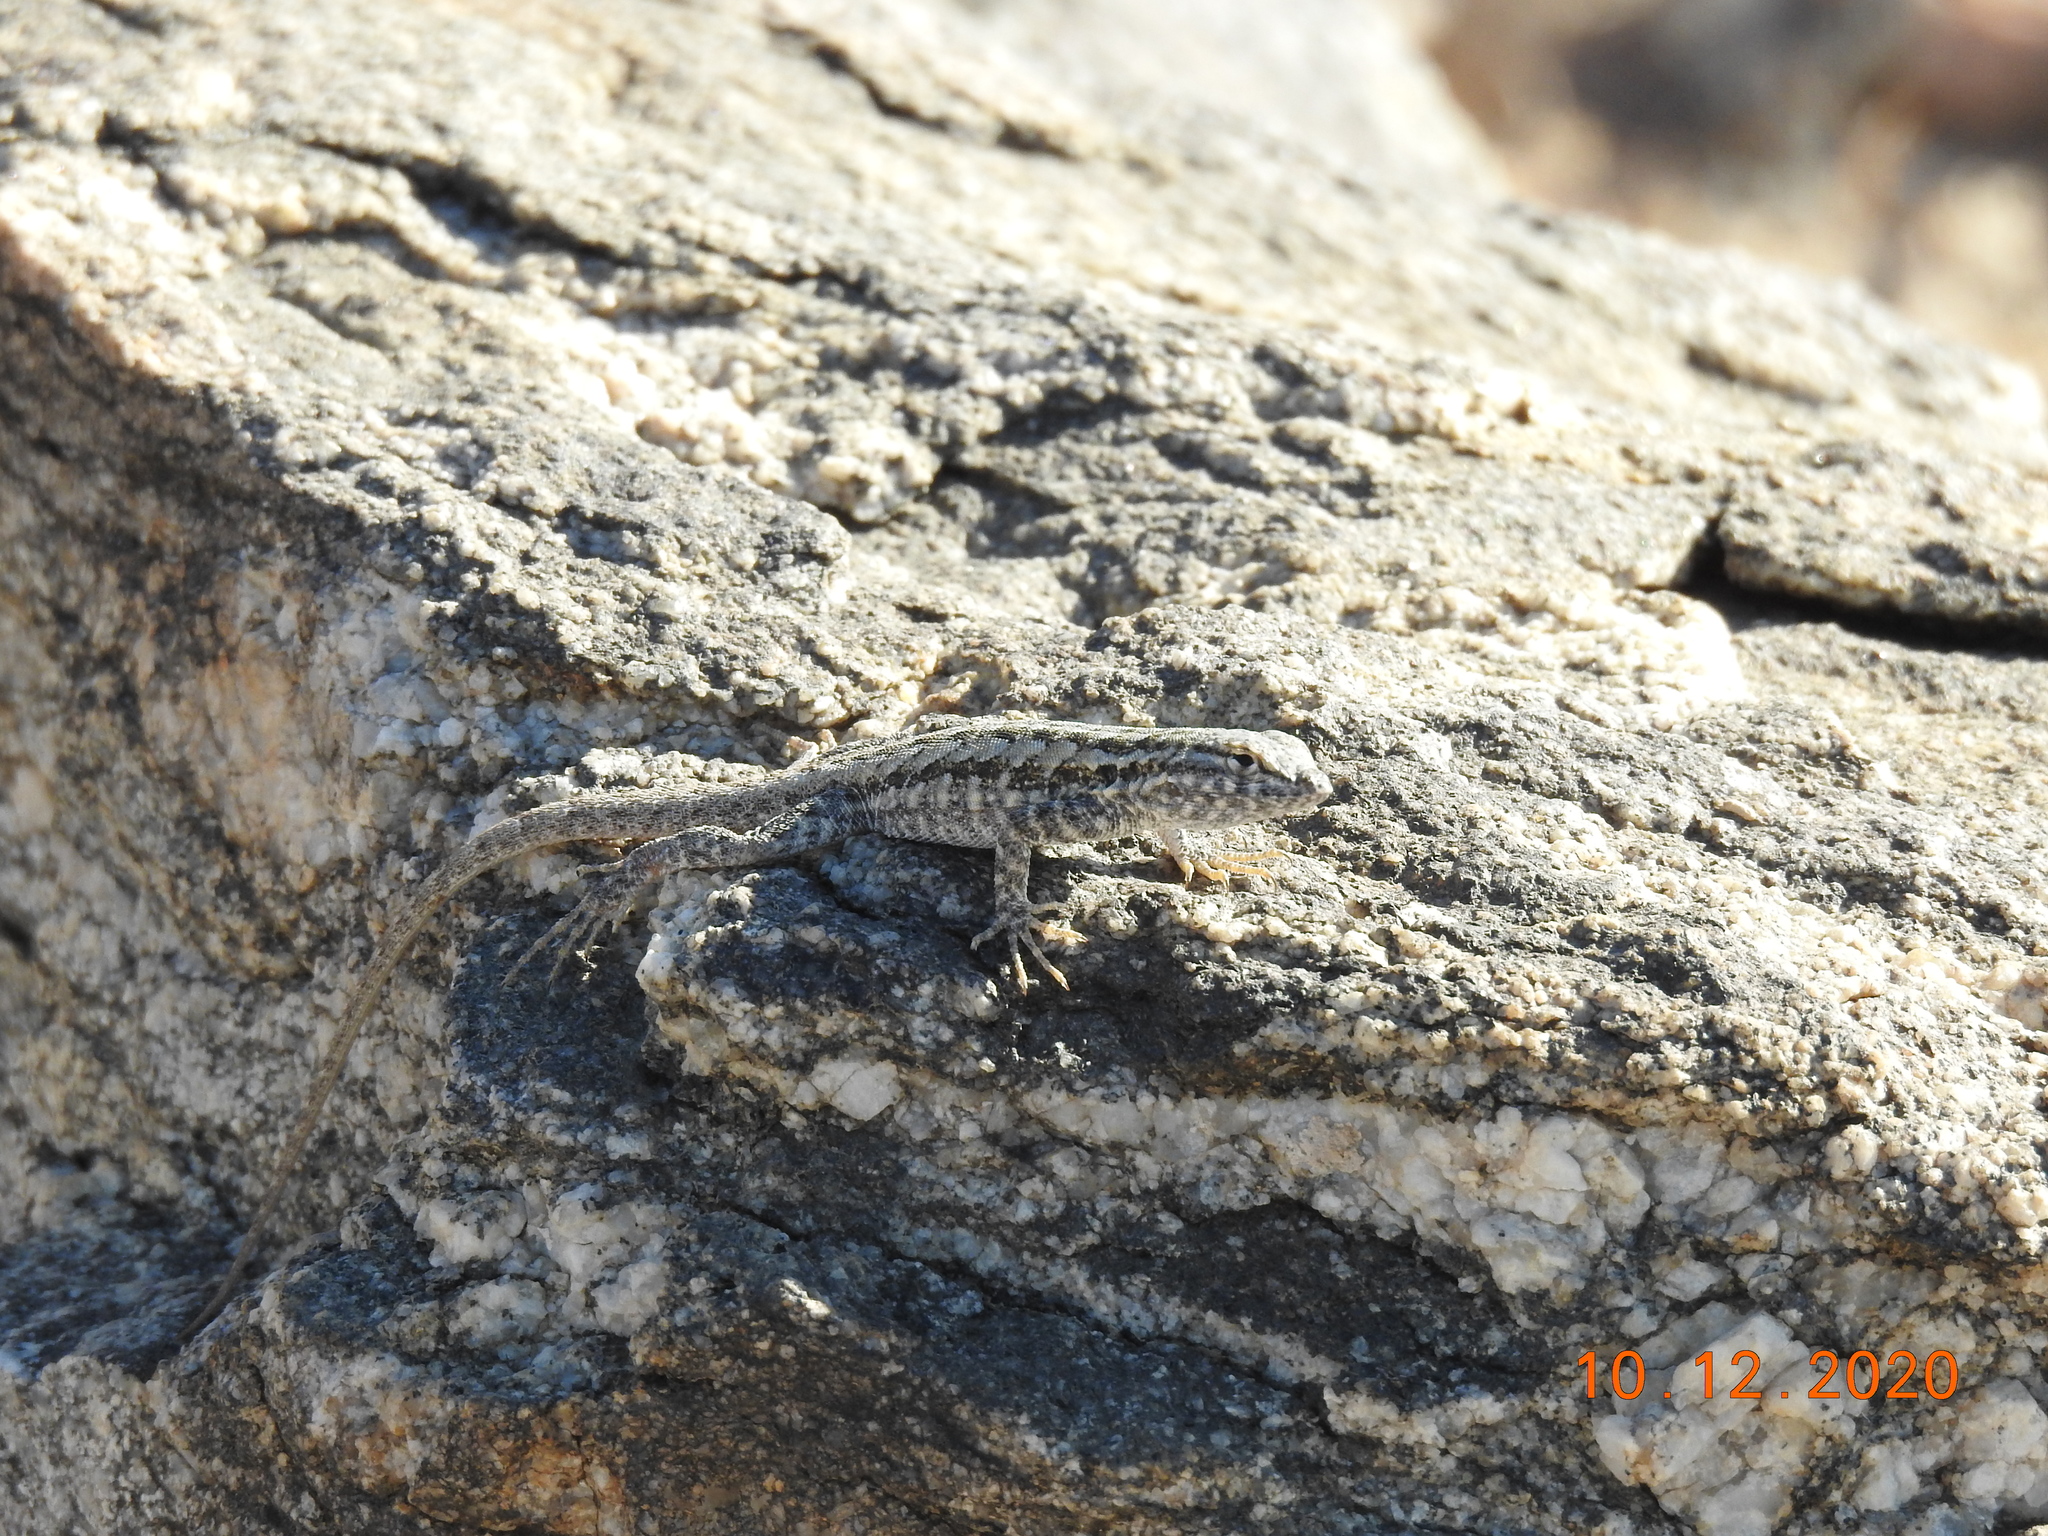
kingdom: Animalia
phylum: Chordata
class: Squamata
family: Phrynosomatidae
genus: Uta
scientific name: Uta stansburiana
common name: Side-blotched lizard
